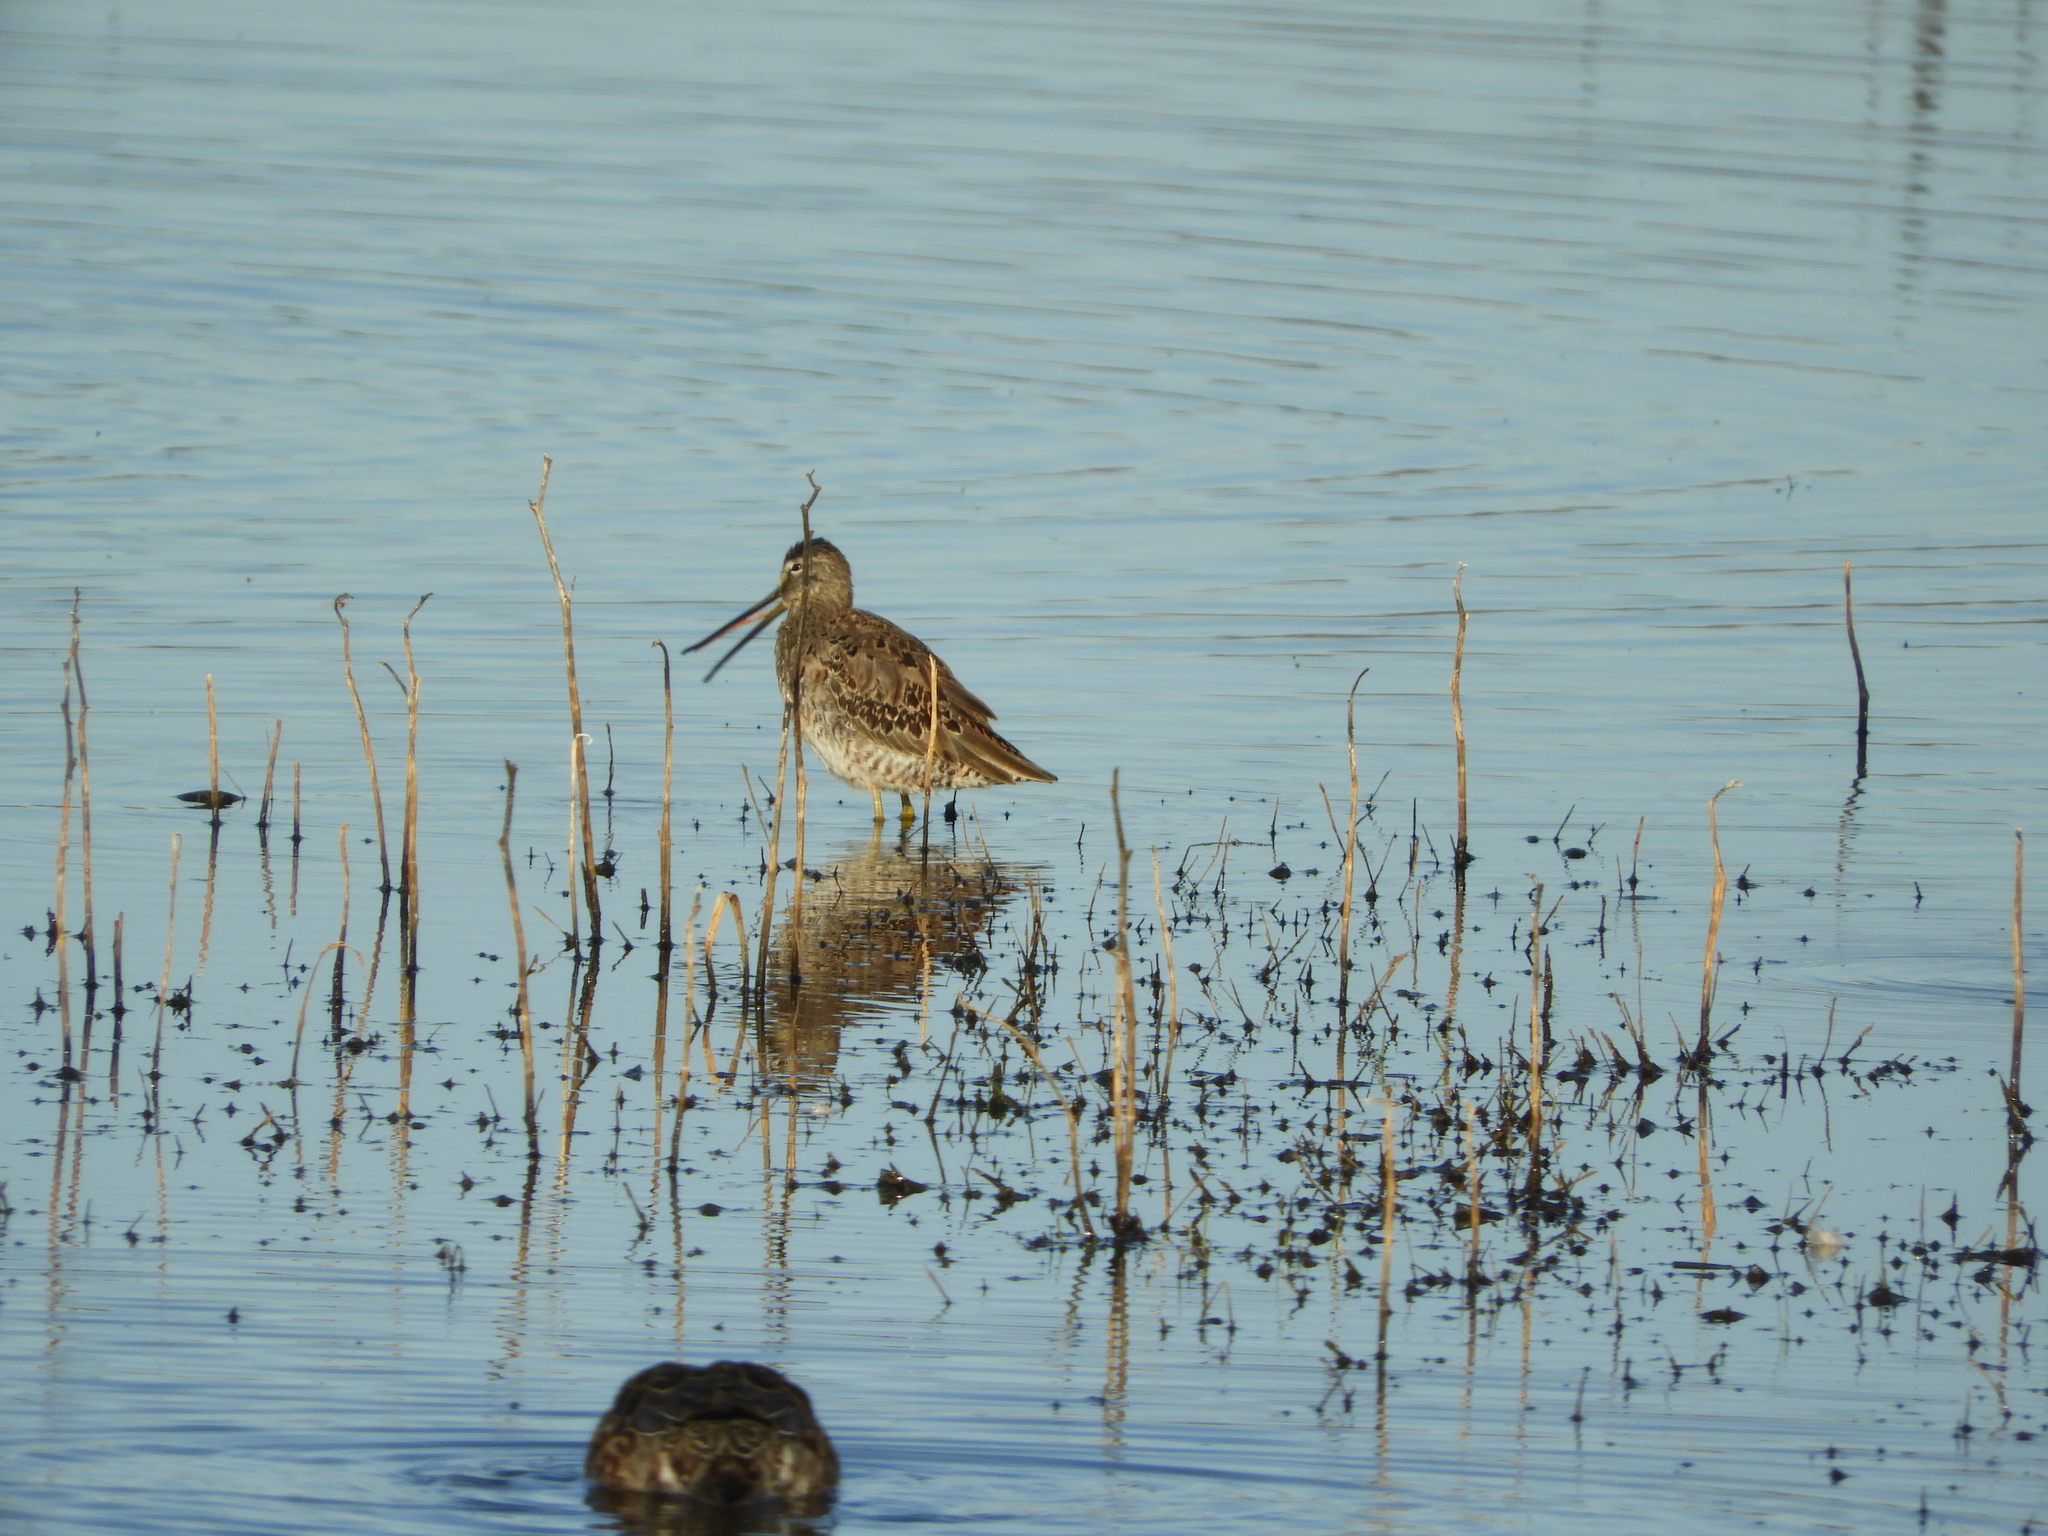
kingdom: Animalia
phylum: Chordata
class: Aves
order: Charadriiformes
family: Scolopacidae
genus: Limnodromus
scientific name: Limnodromus scolopaceus
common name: Long-billed dowitcher
